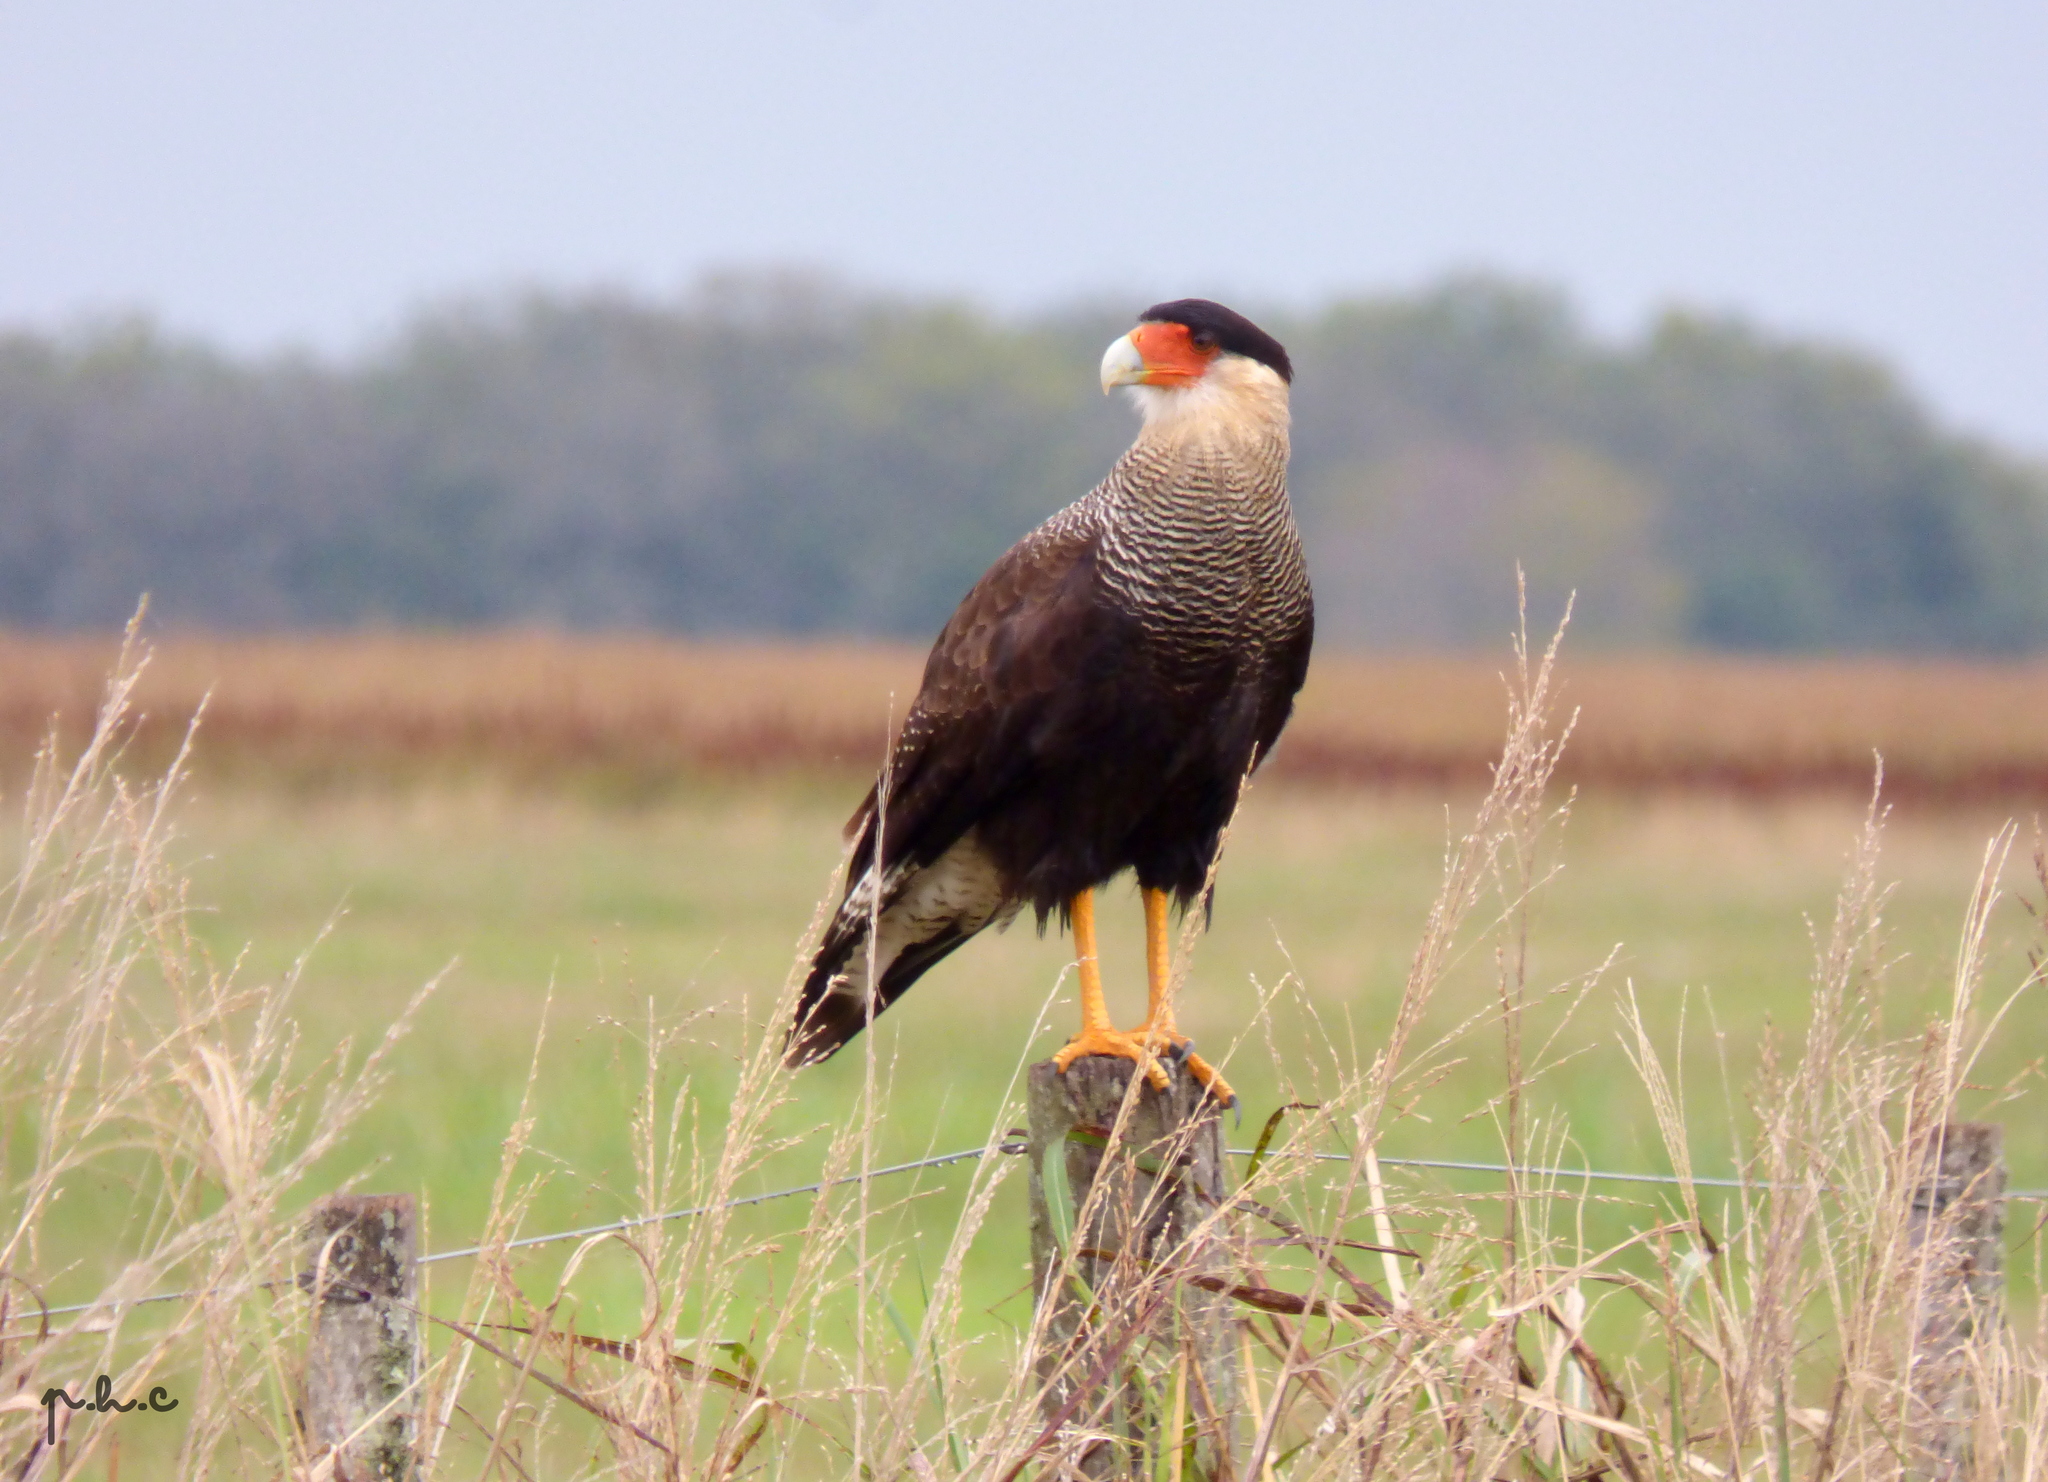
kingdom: Animalia
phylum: Chordata
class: Aves
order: Falconiformes
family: Falconidae
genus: Caracara
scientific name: Caracara plancus
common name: Southern caracara
